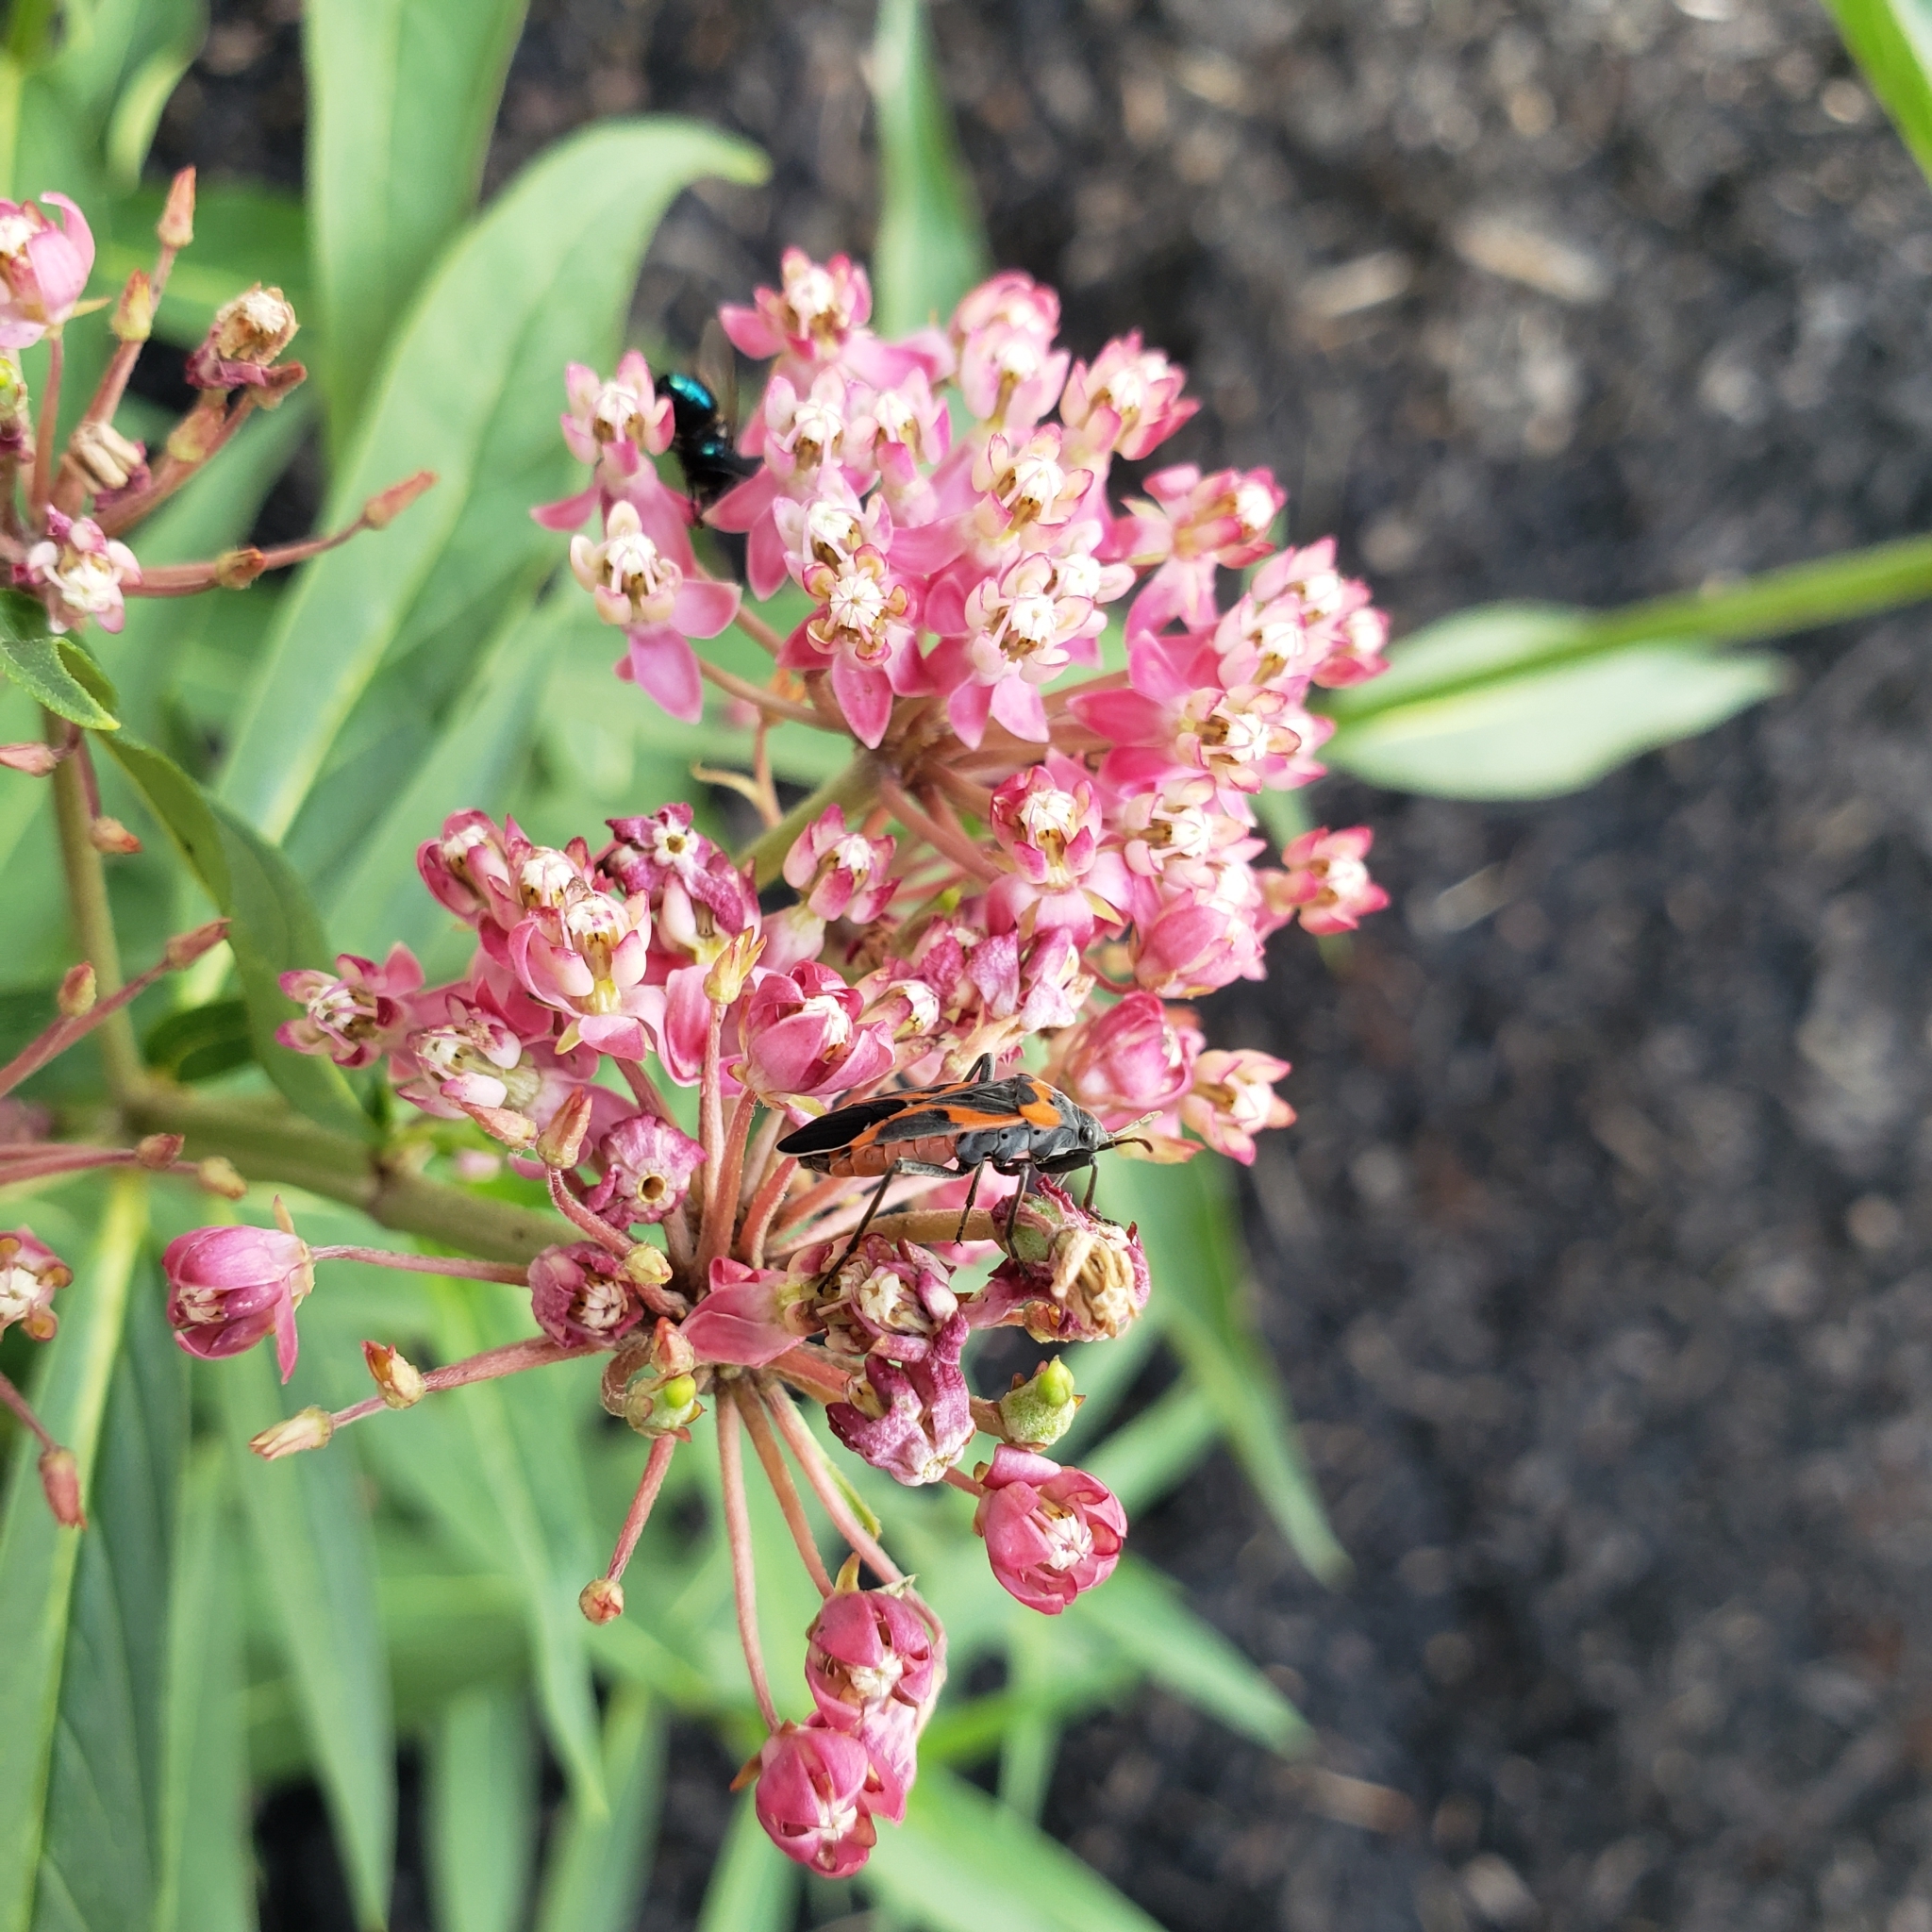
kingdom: Animalia
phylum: Arthropoda
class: Insecta
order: Hemiptera
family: Lygaeidae
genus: Lygaeus
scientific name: Lygaeus kalmii
